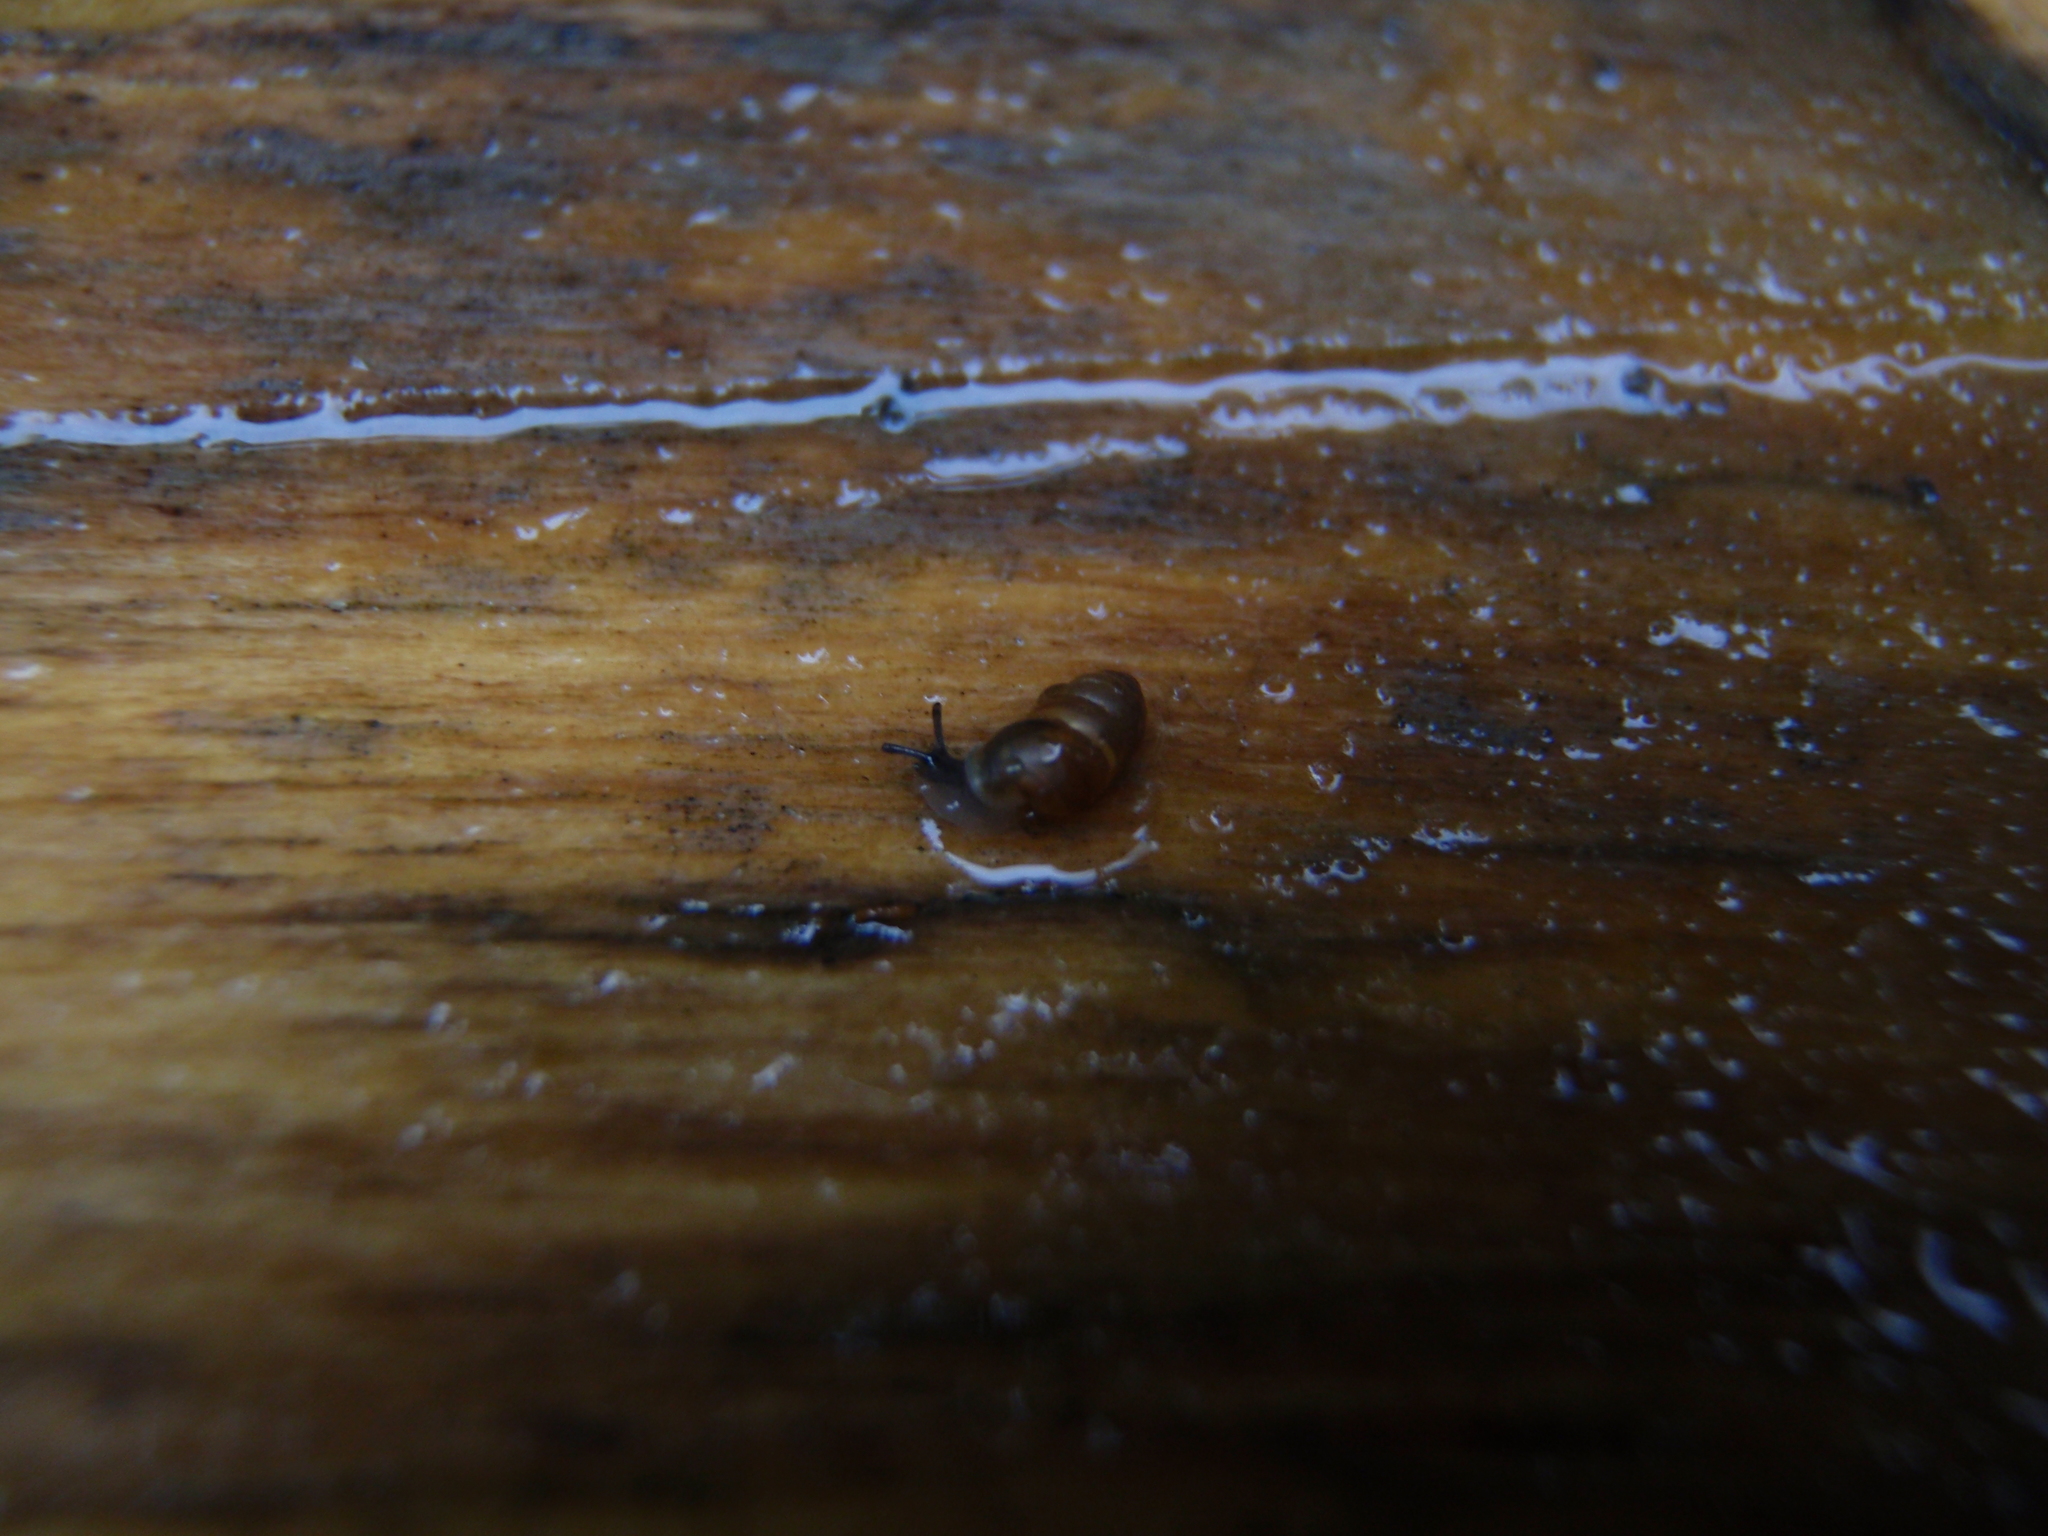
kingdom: Animalia
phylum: Mollusca
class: Gastropoda
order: Stylommatophora
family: Lauriidae
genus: Lauria
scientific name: Lauria cylindracea
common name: Common chrysalis snail
